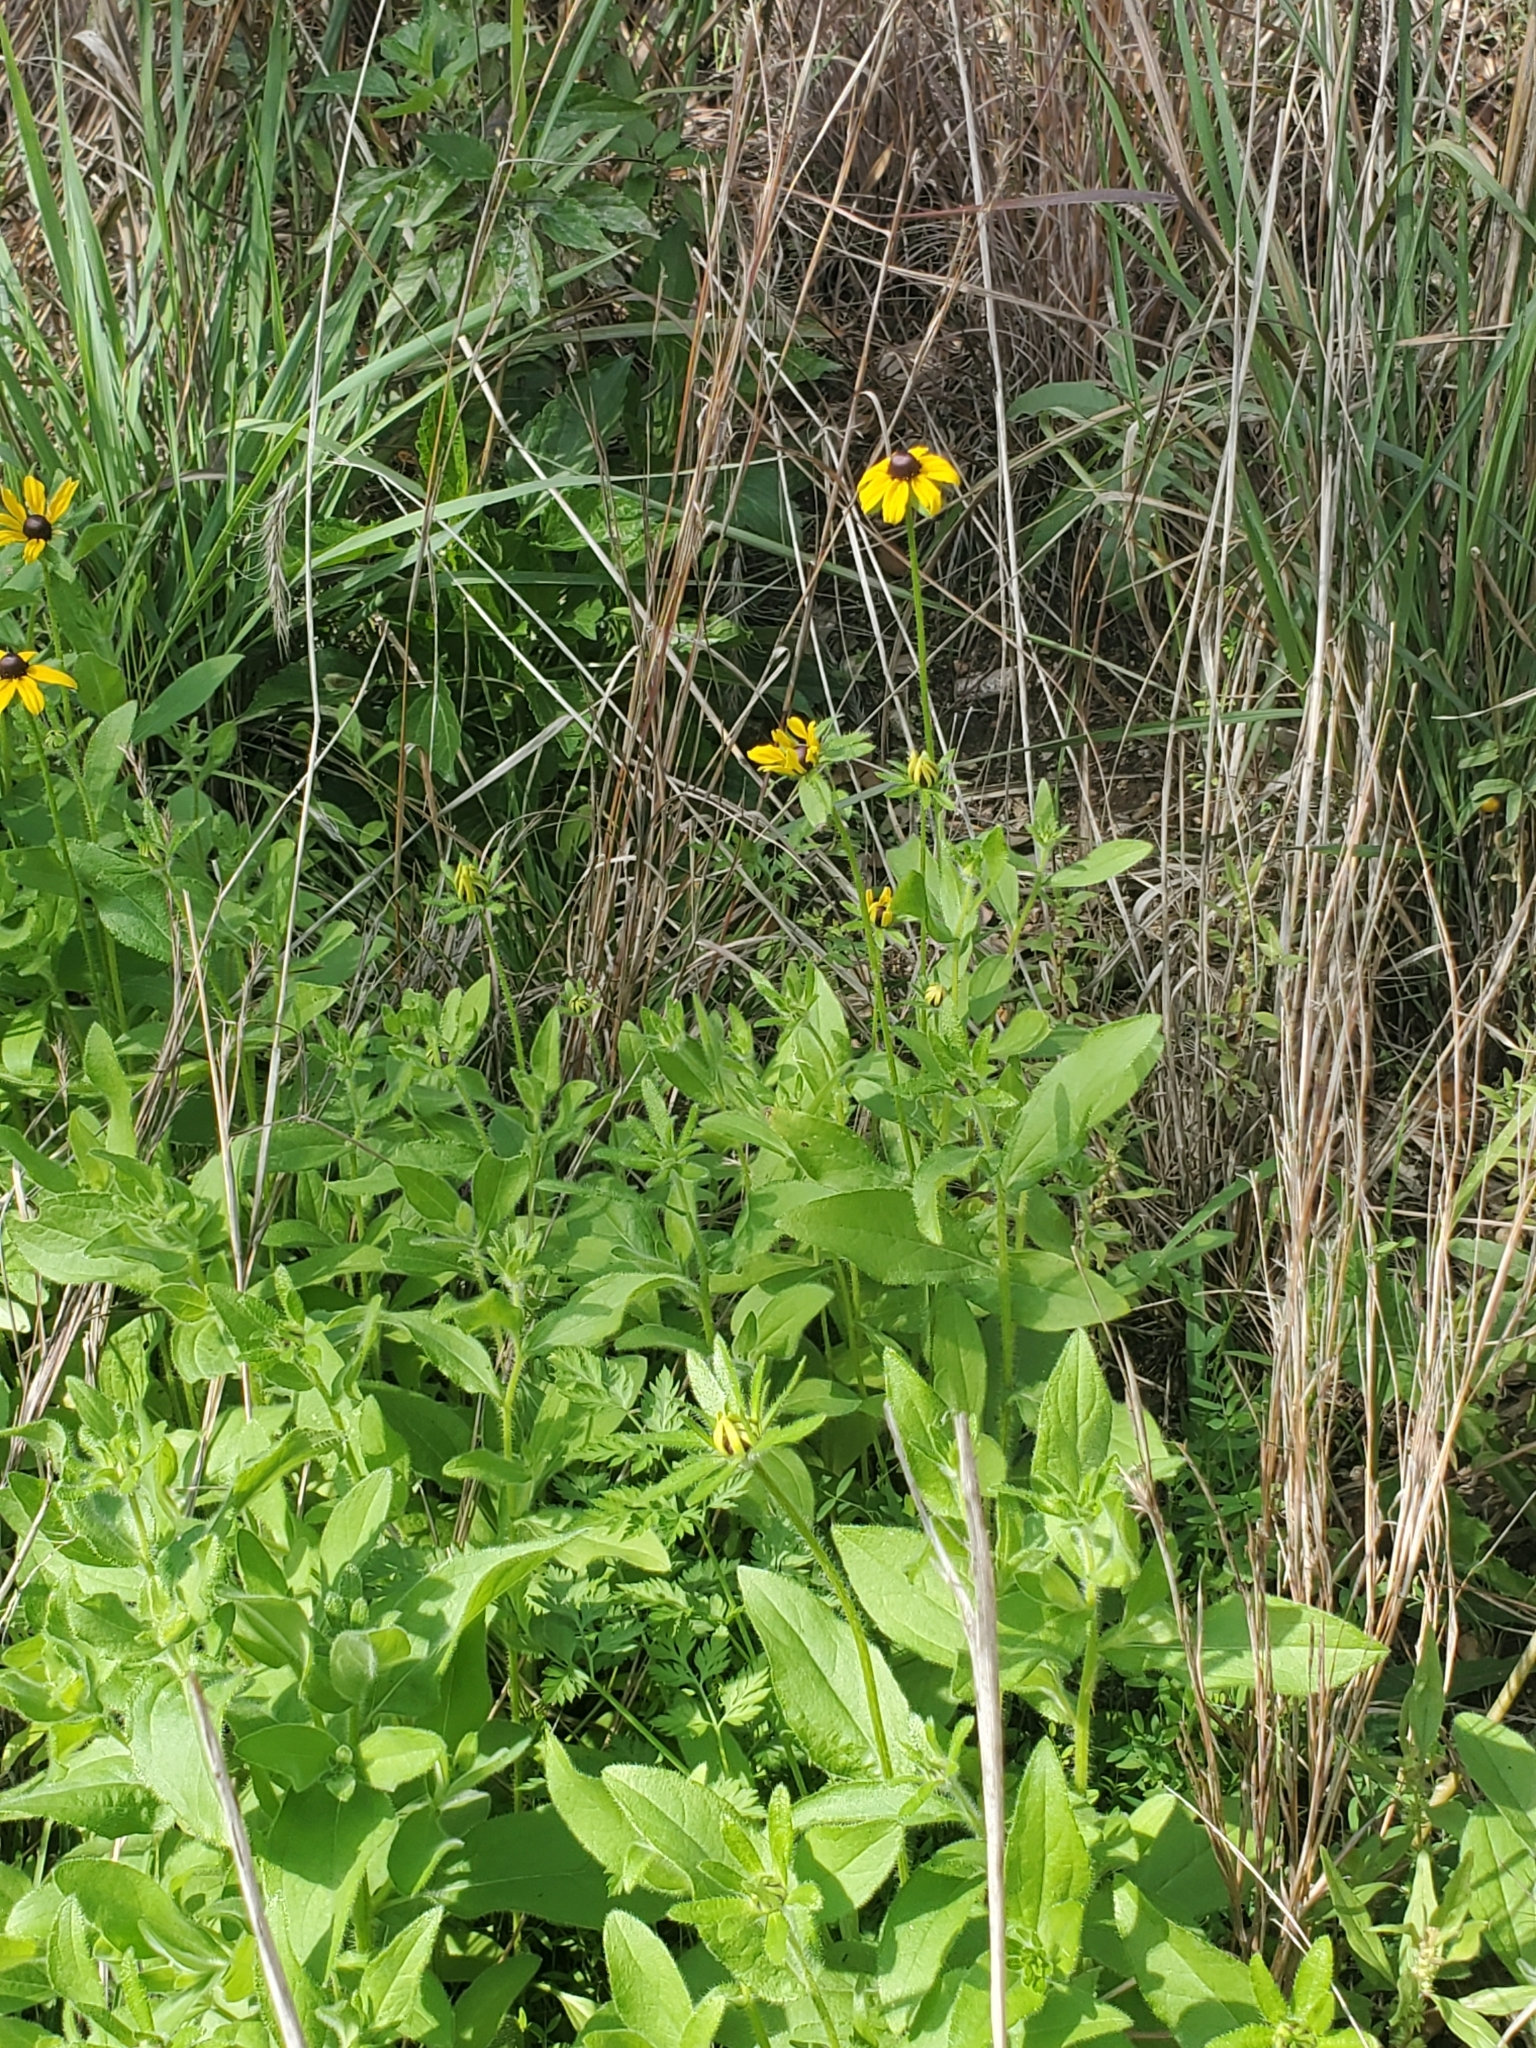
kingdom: Plantae
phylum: Tracheophyta
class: Magnoliopsida
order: Asterales
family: Asteraceae
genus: Rudbeckia
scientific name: Rudbeckia hirta
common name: Black-eyed-susan
